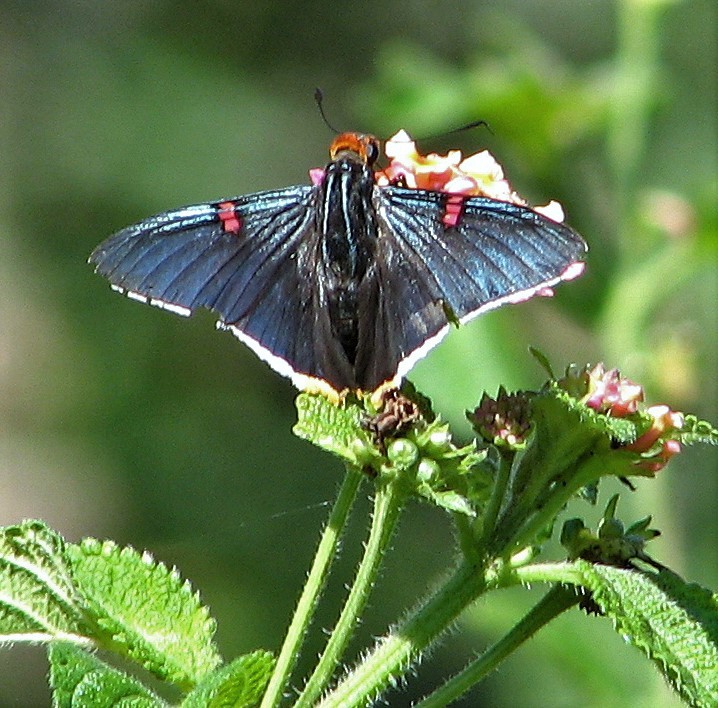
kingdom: Animalia
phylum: Arthropoda
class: Insecta
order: Lepidoptera
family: Hesperiidae
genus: Phocides
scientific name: Phocides polybius
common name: Guava skipper
